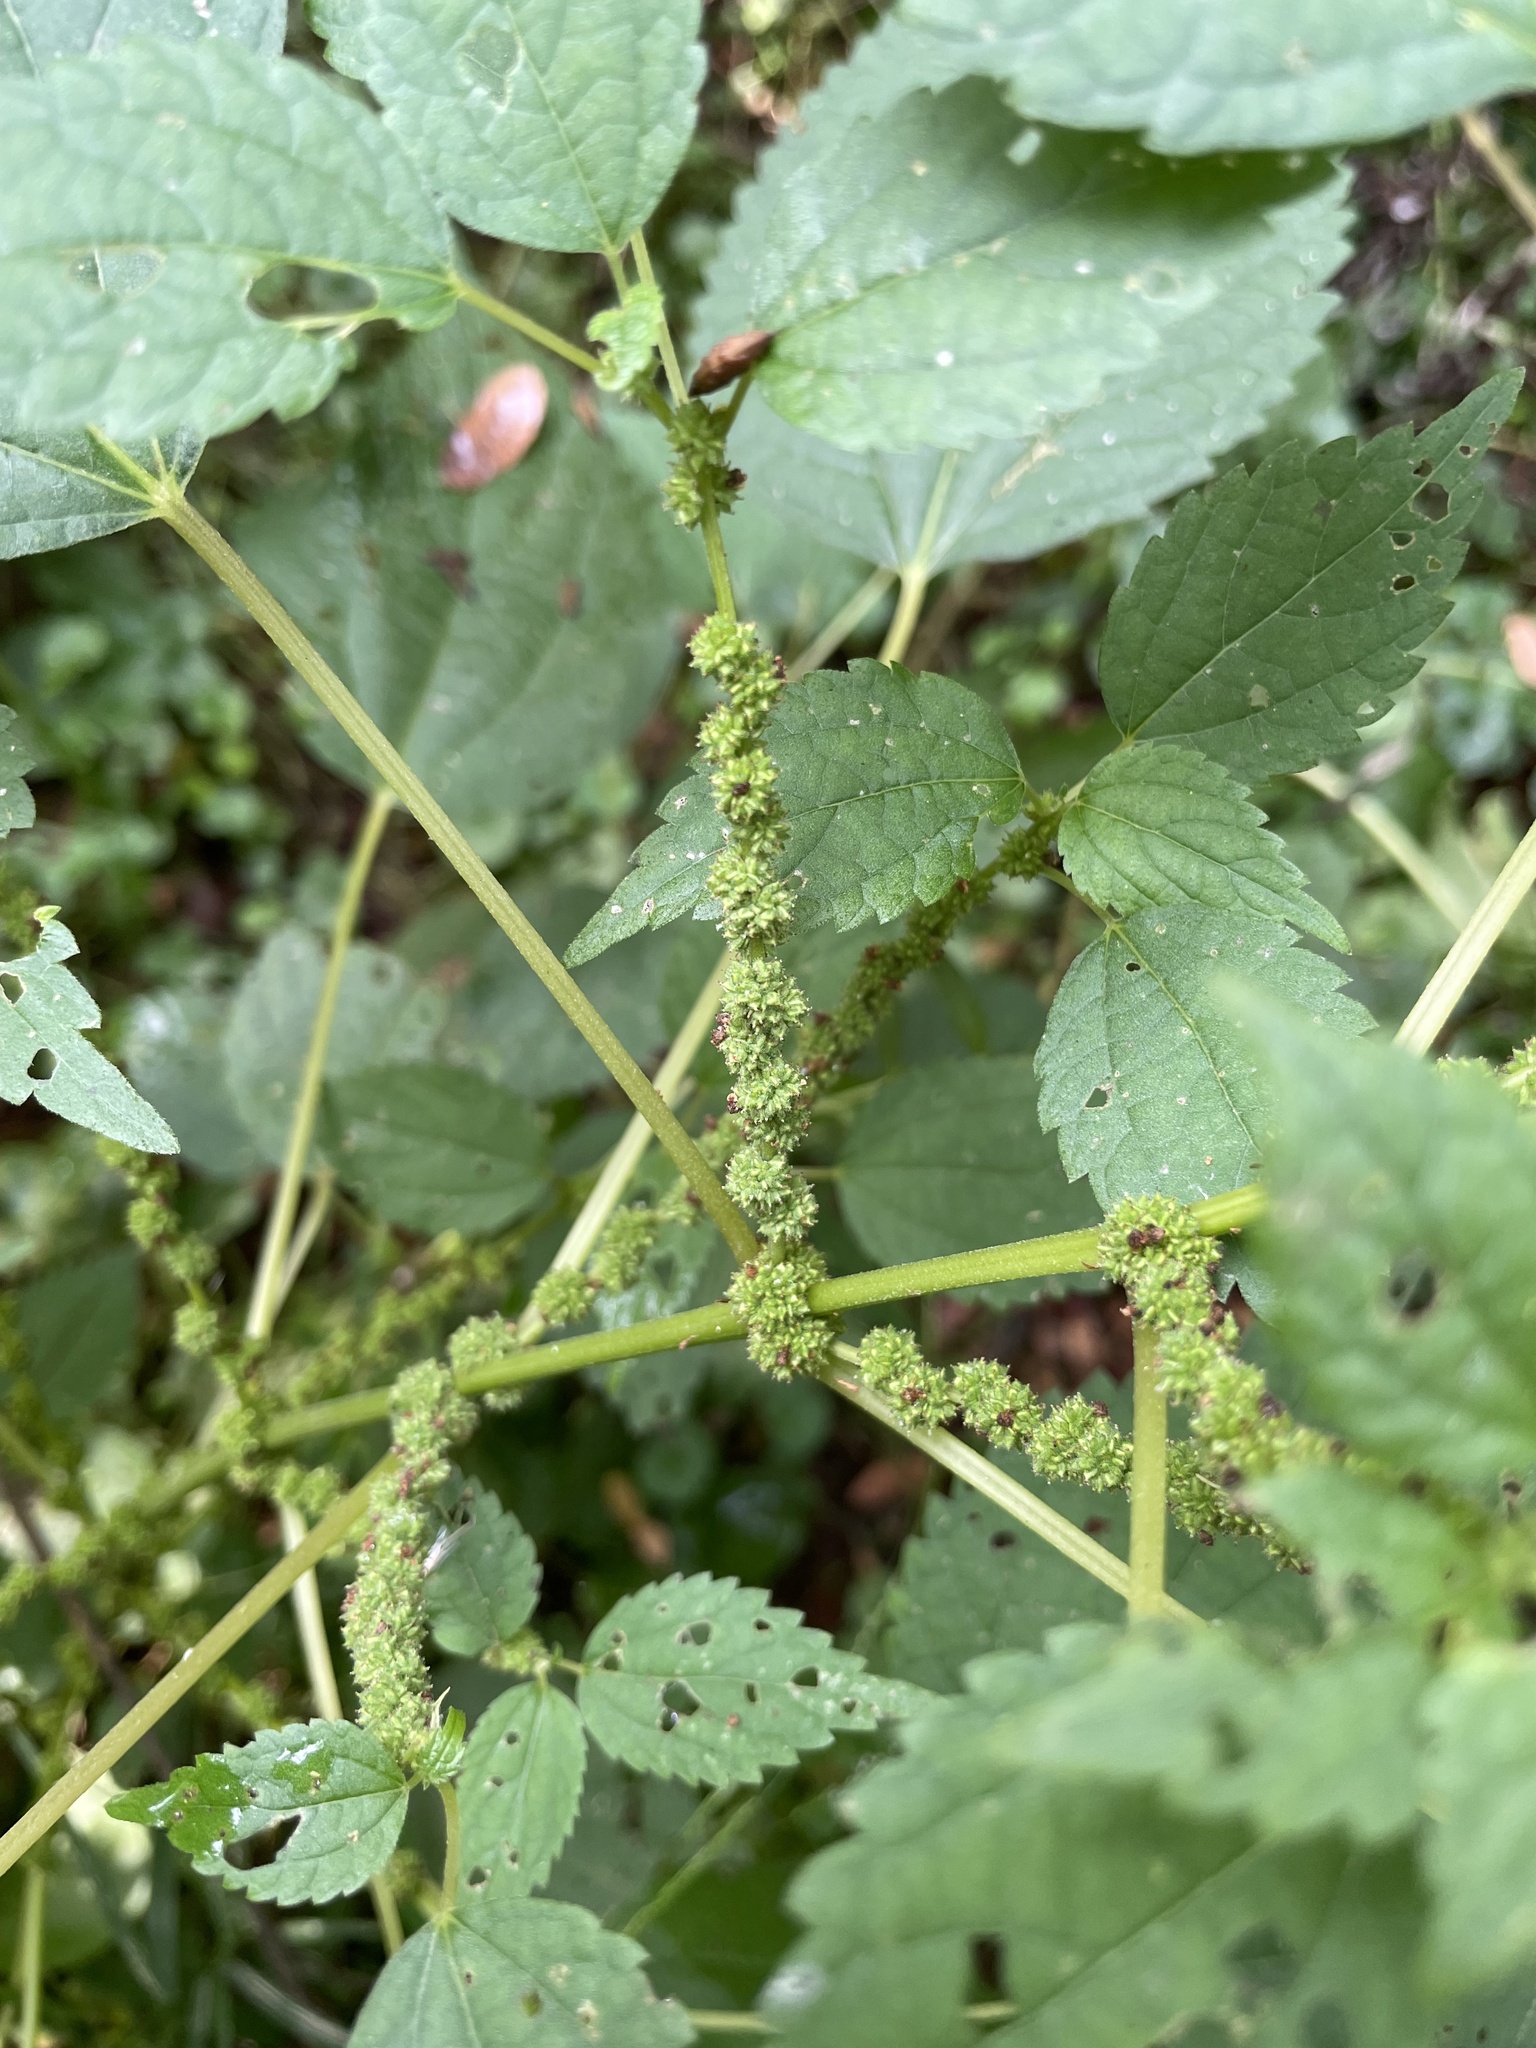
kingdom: Plantae
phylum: Tracheophyta
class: Magnoliopsida
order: Rosales
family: Urticaceae
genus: Boehmeria
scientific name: Boehmeria cylindrica
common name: Bog-hemp
